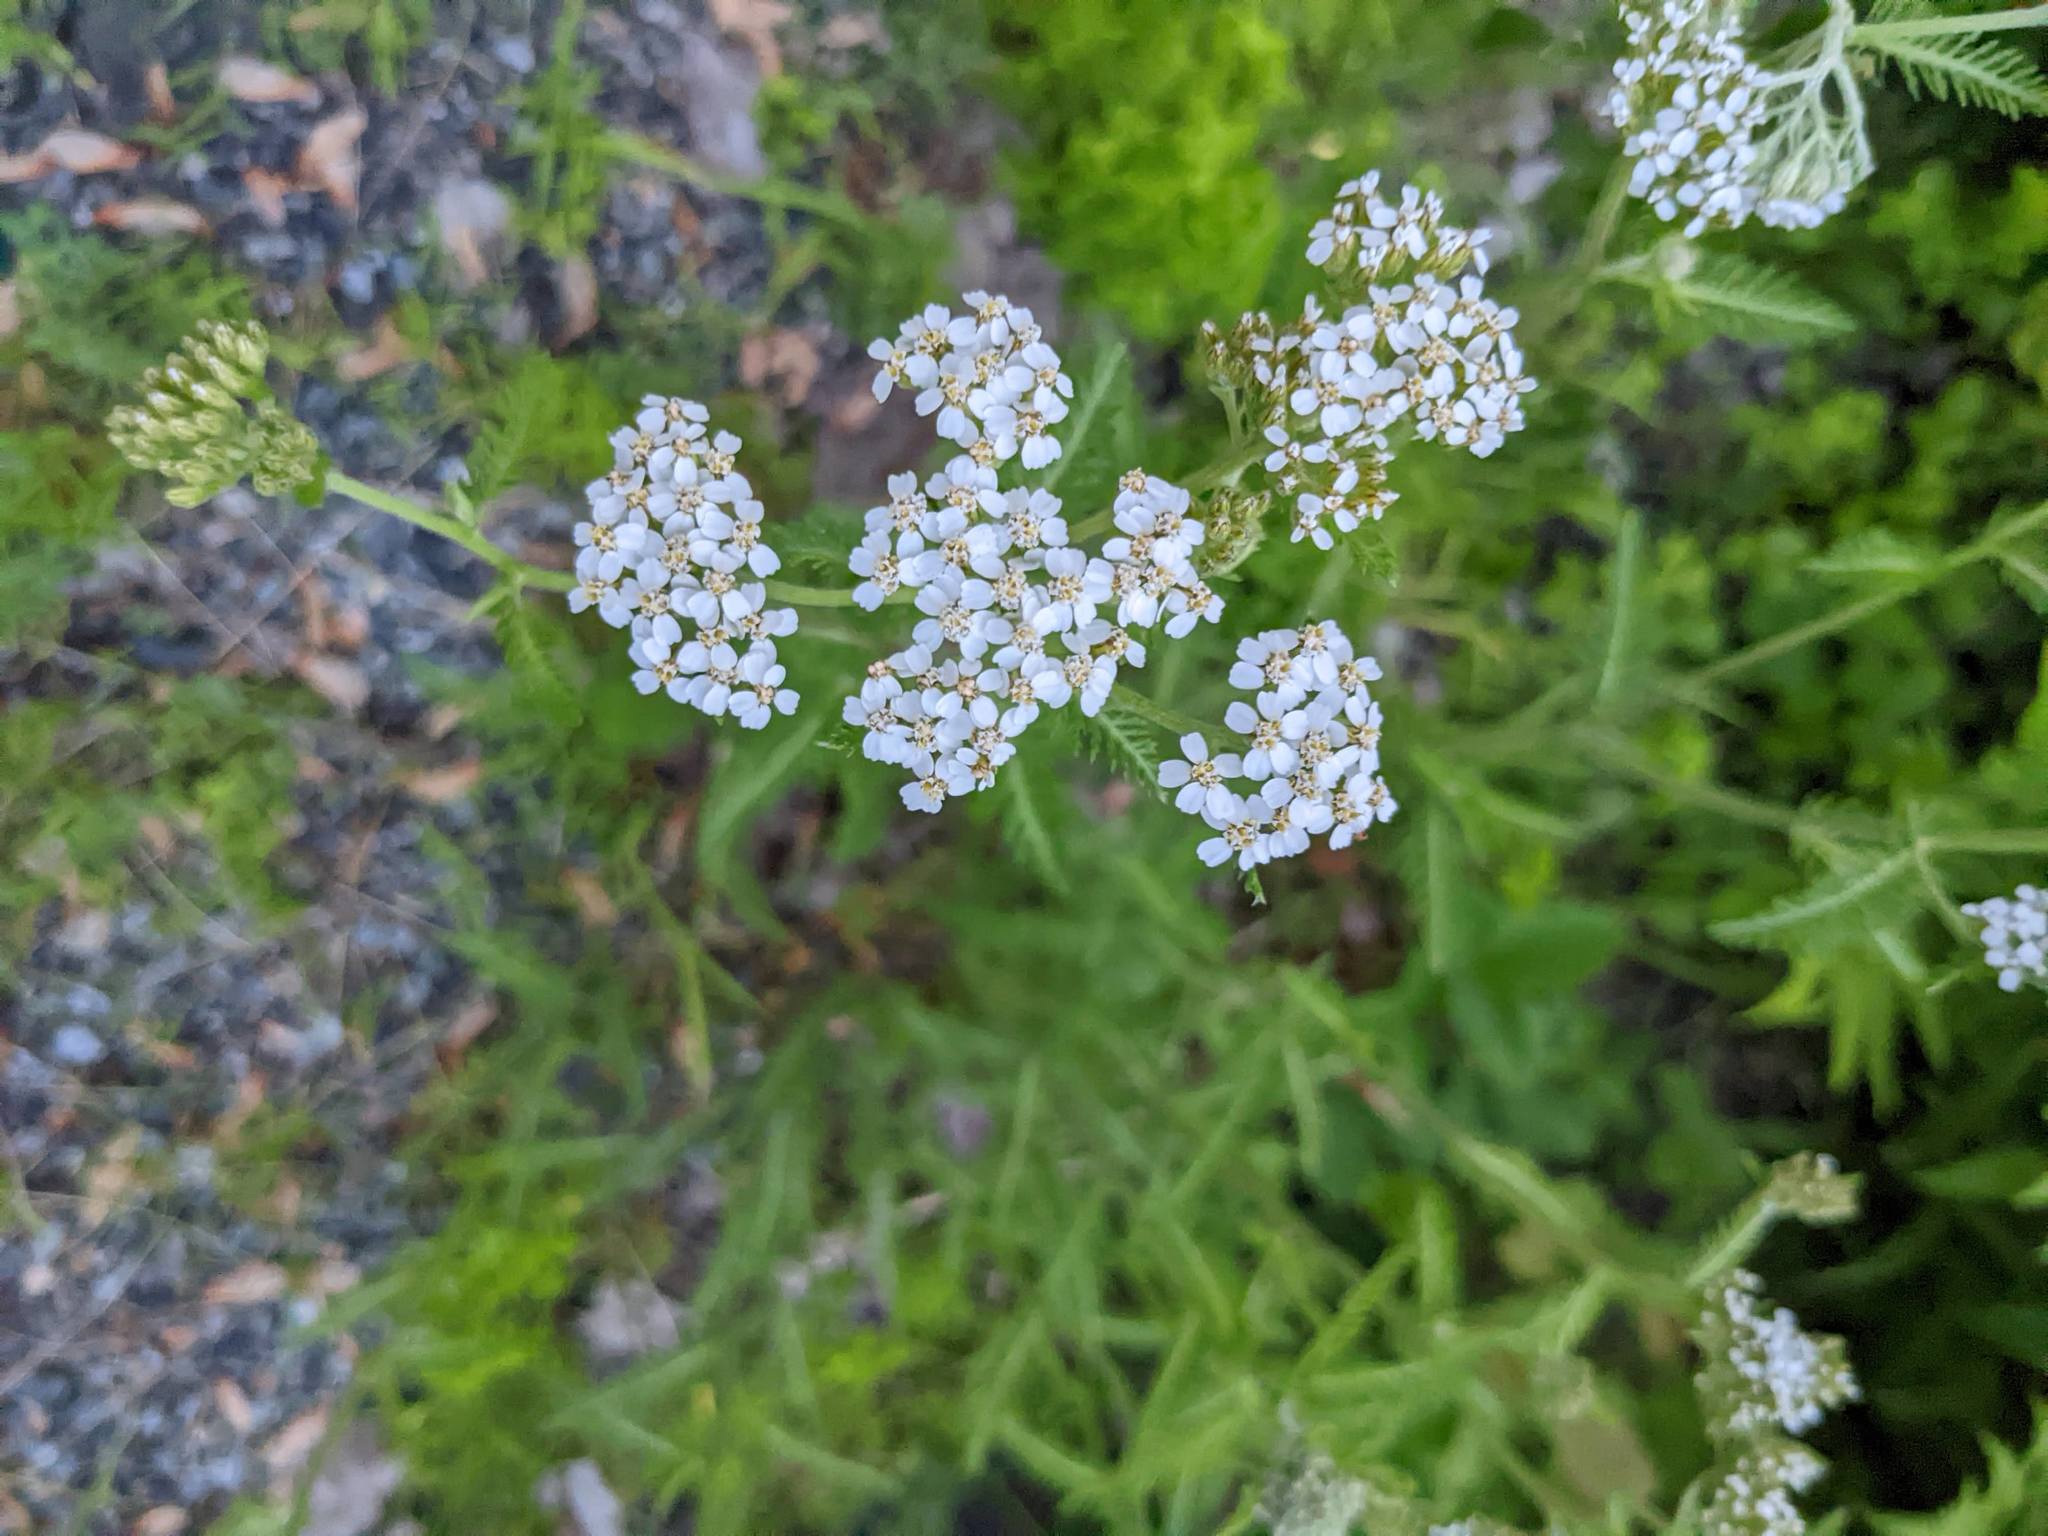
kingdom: Plantae
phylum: Tracheophyta
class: Magnoliopsida
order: Asterales
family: Asteraceae
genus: Achillea
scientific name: Achillea millefolium
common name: Yarrow
